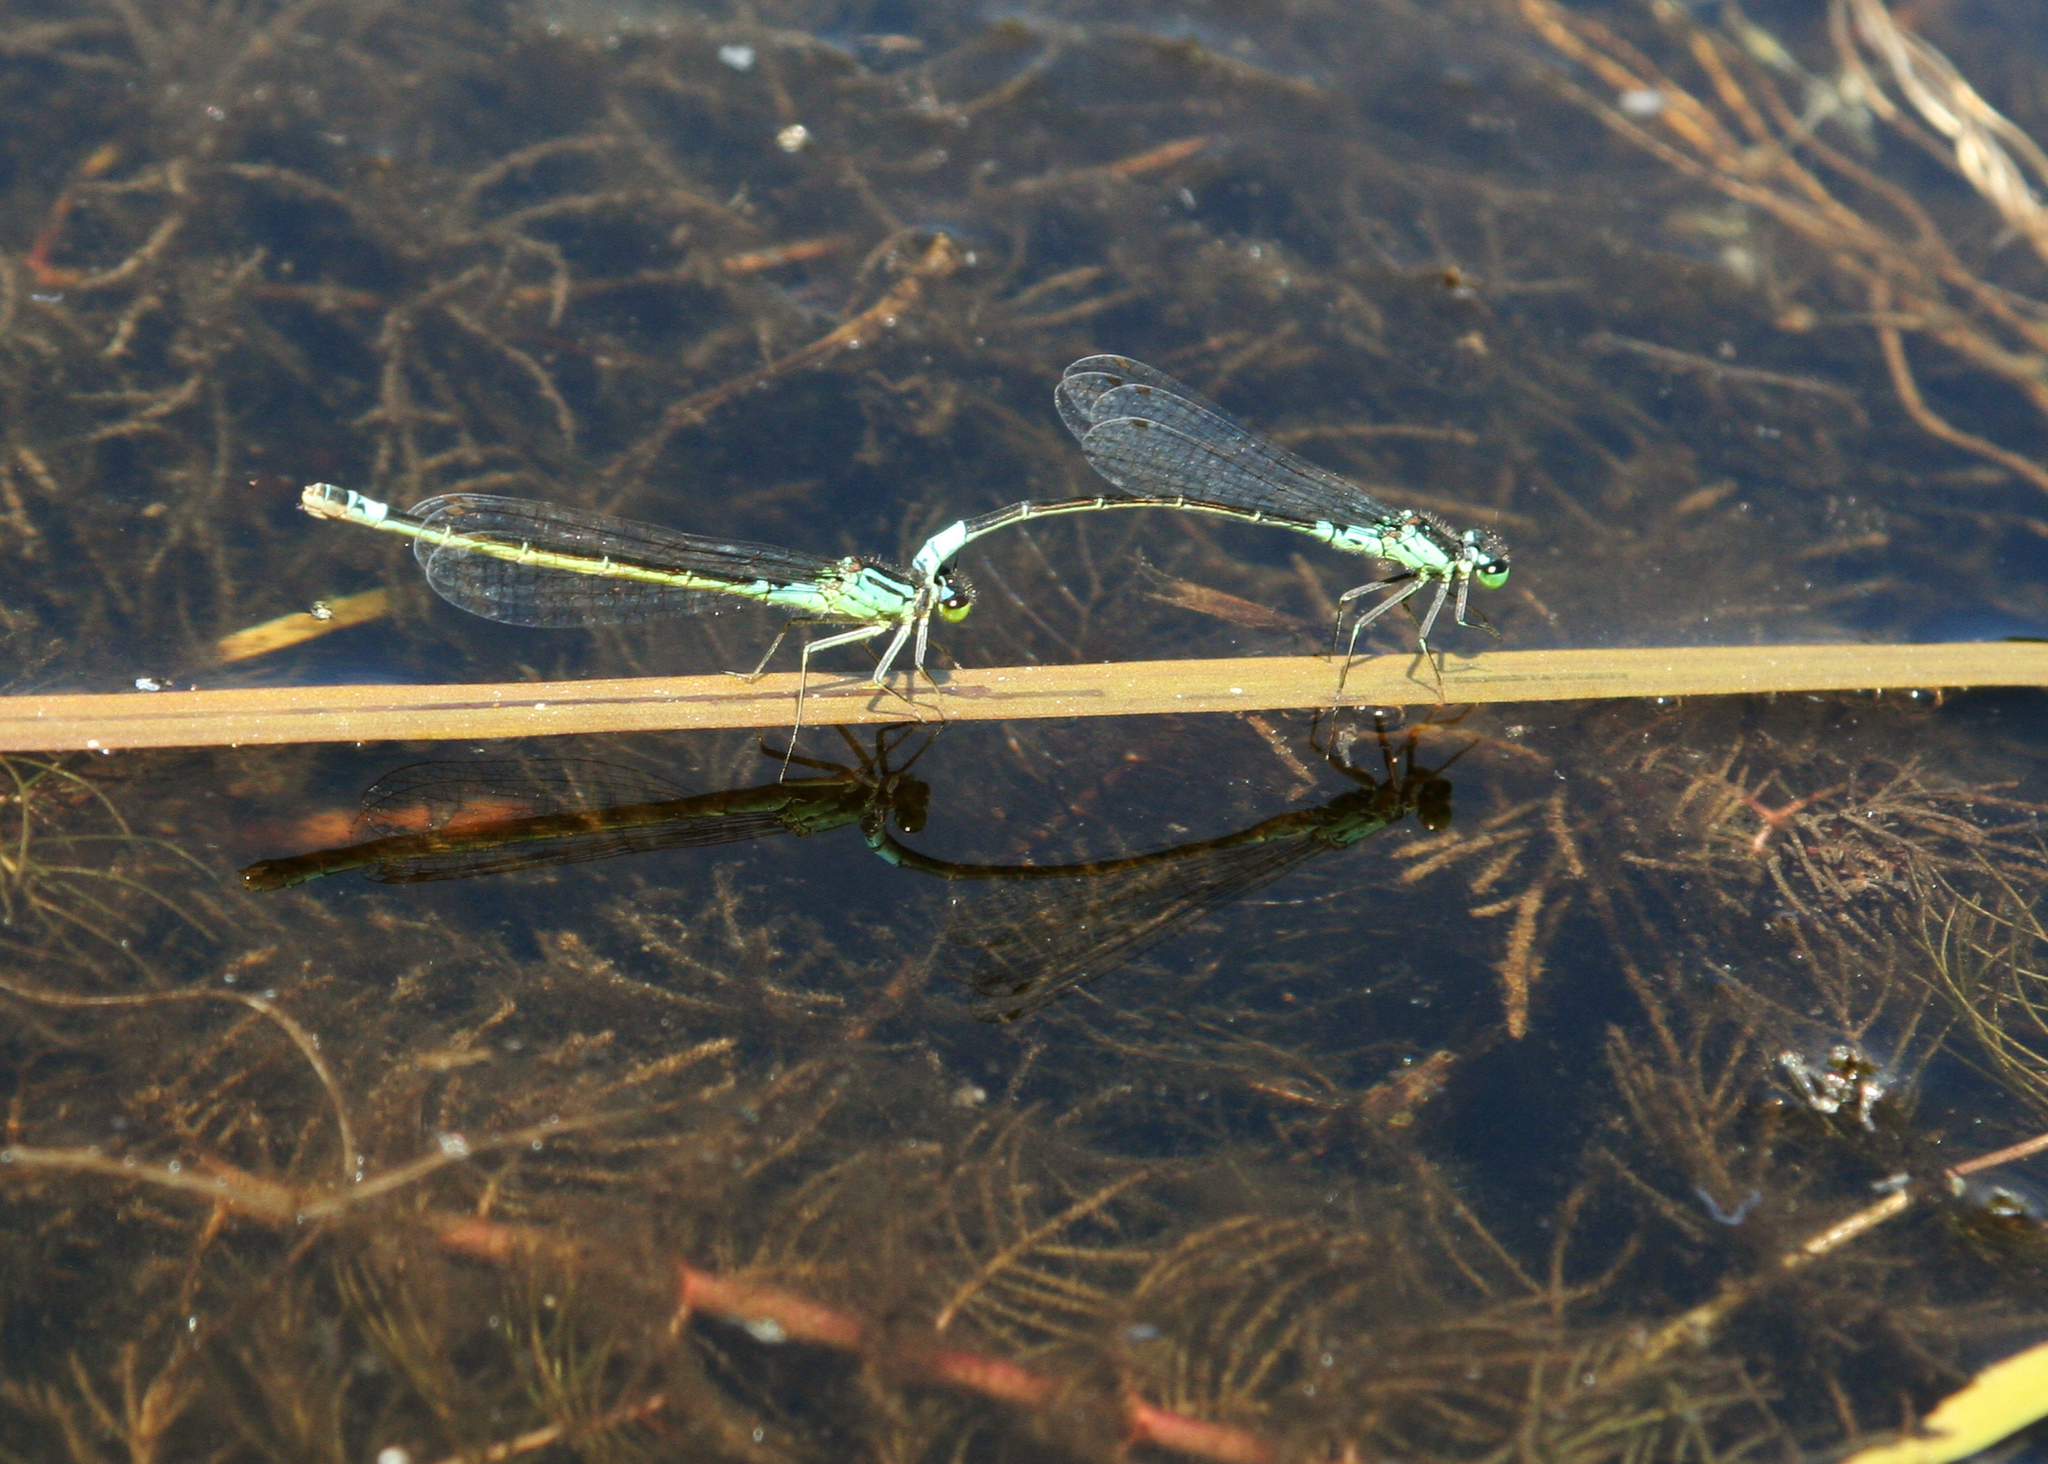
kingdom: Animalia
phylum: Arthropoda
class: Insecta
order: Odonata
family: Coenagrionidae
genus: Coenagrion
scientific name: Coenagrion armatum
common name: Dark bluet
